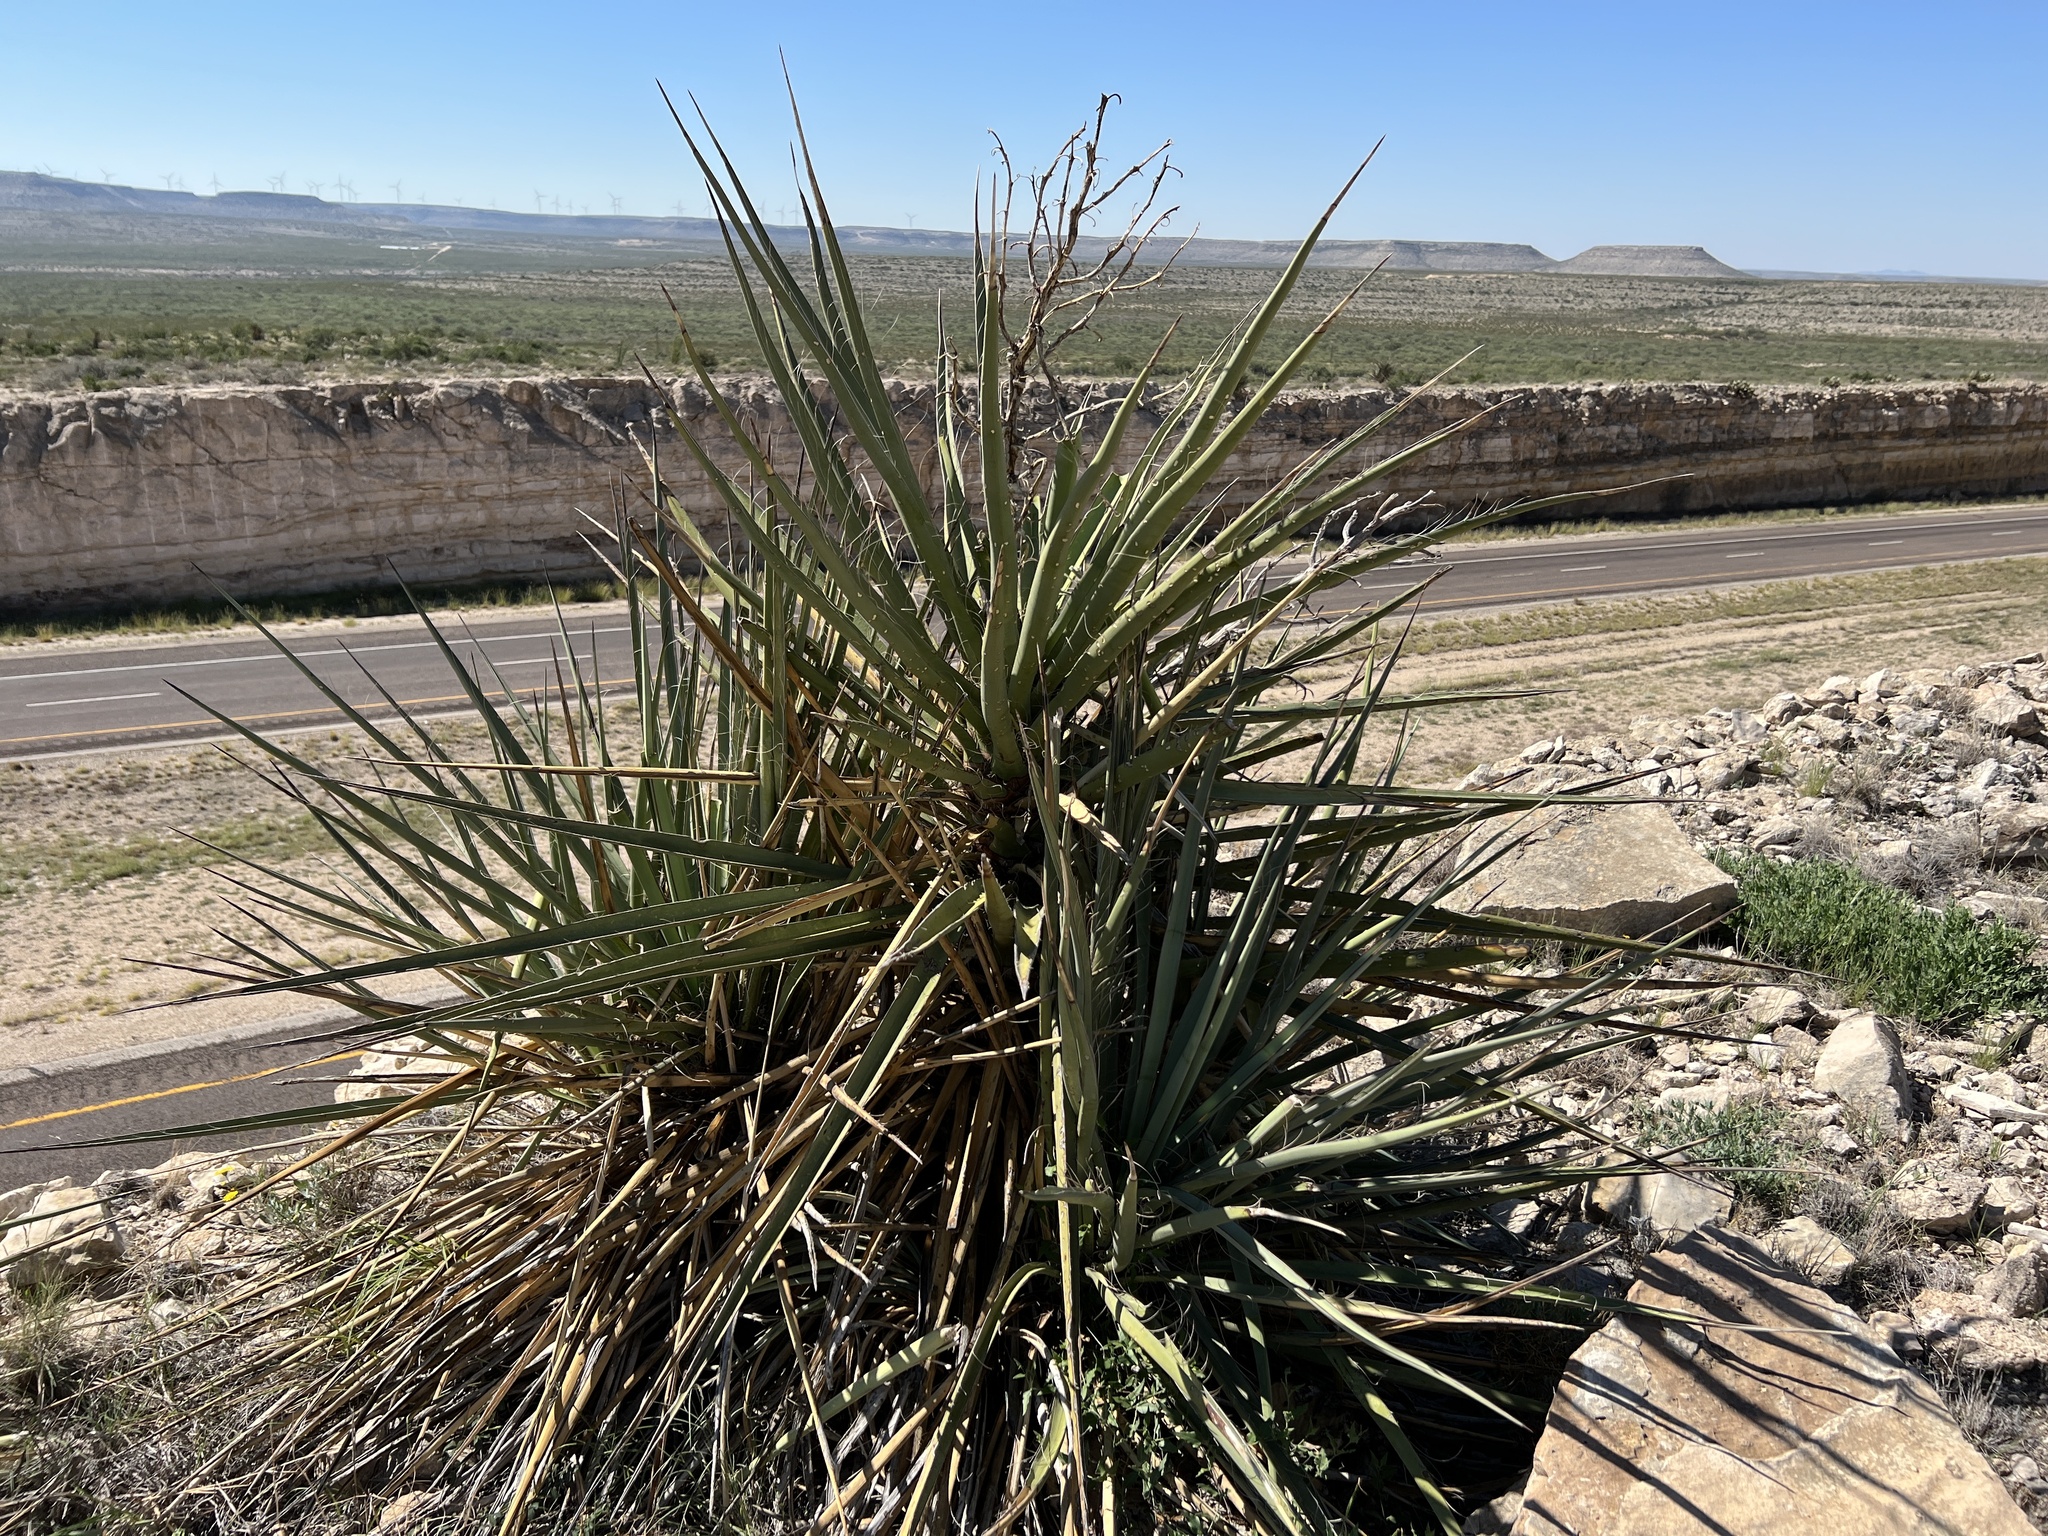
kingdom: Plantae
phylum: Tracheophyta
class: Liliopsida
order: Asparagales
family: Asparagaceae
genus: Yucca
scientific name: Yucca treculiana
